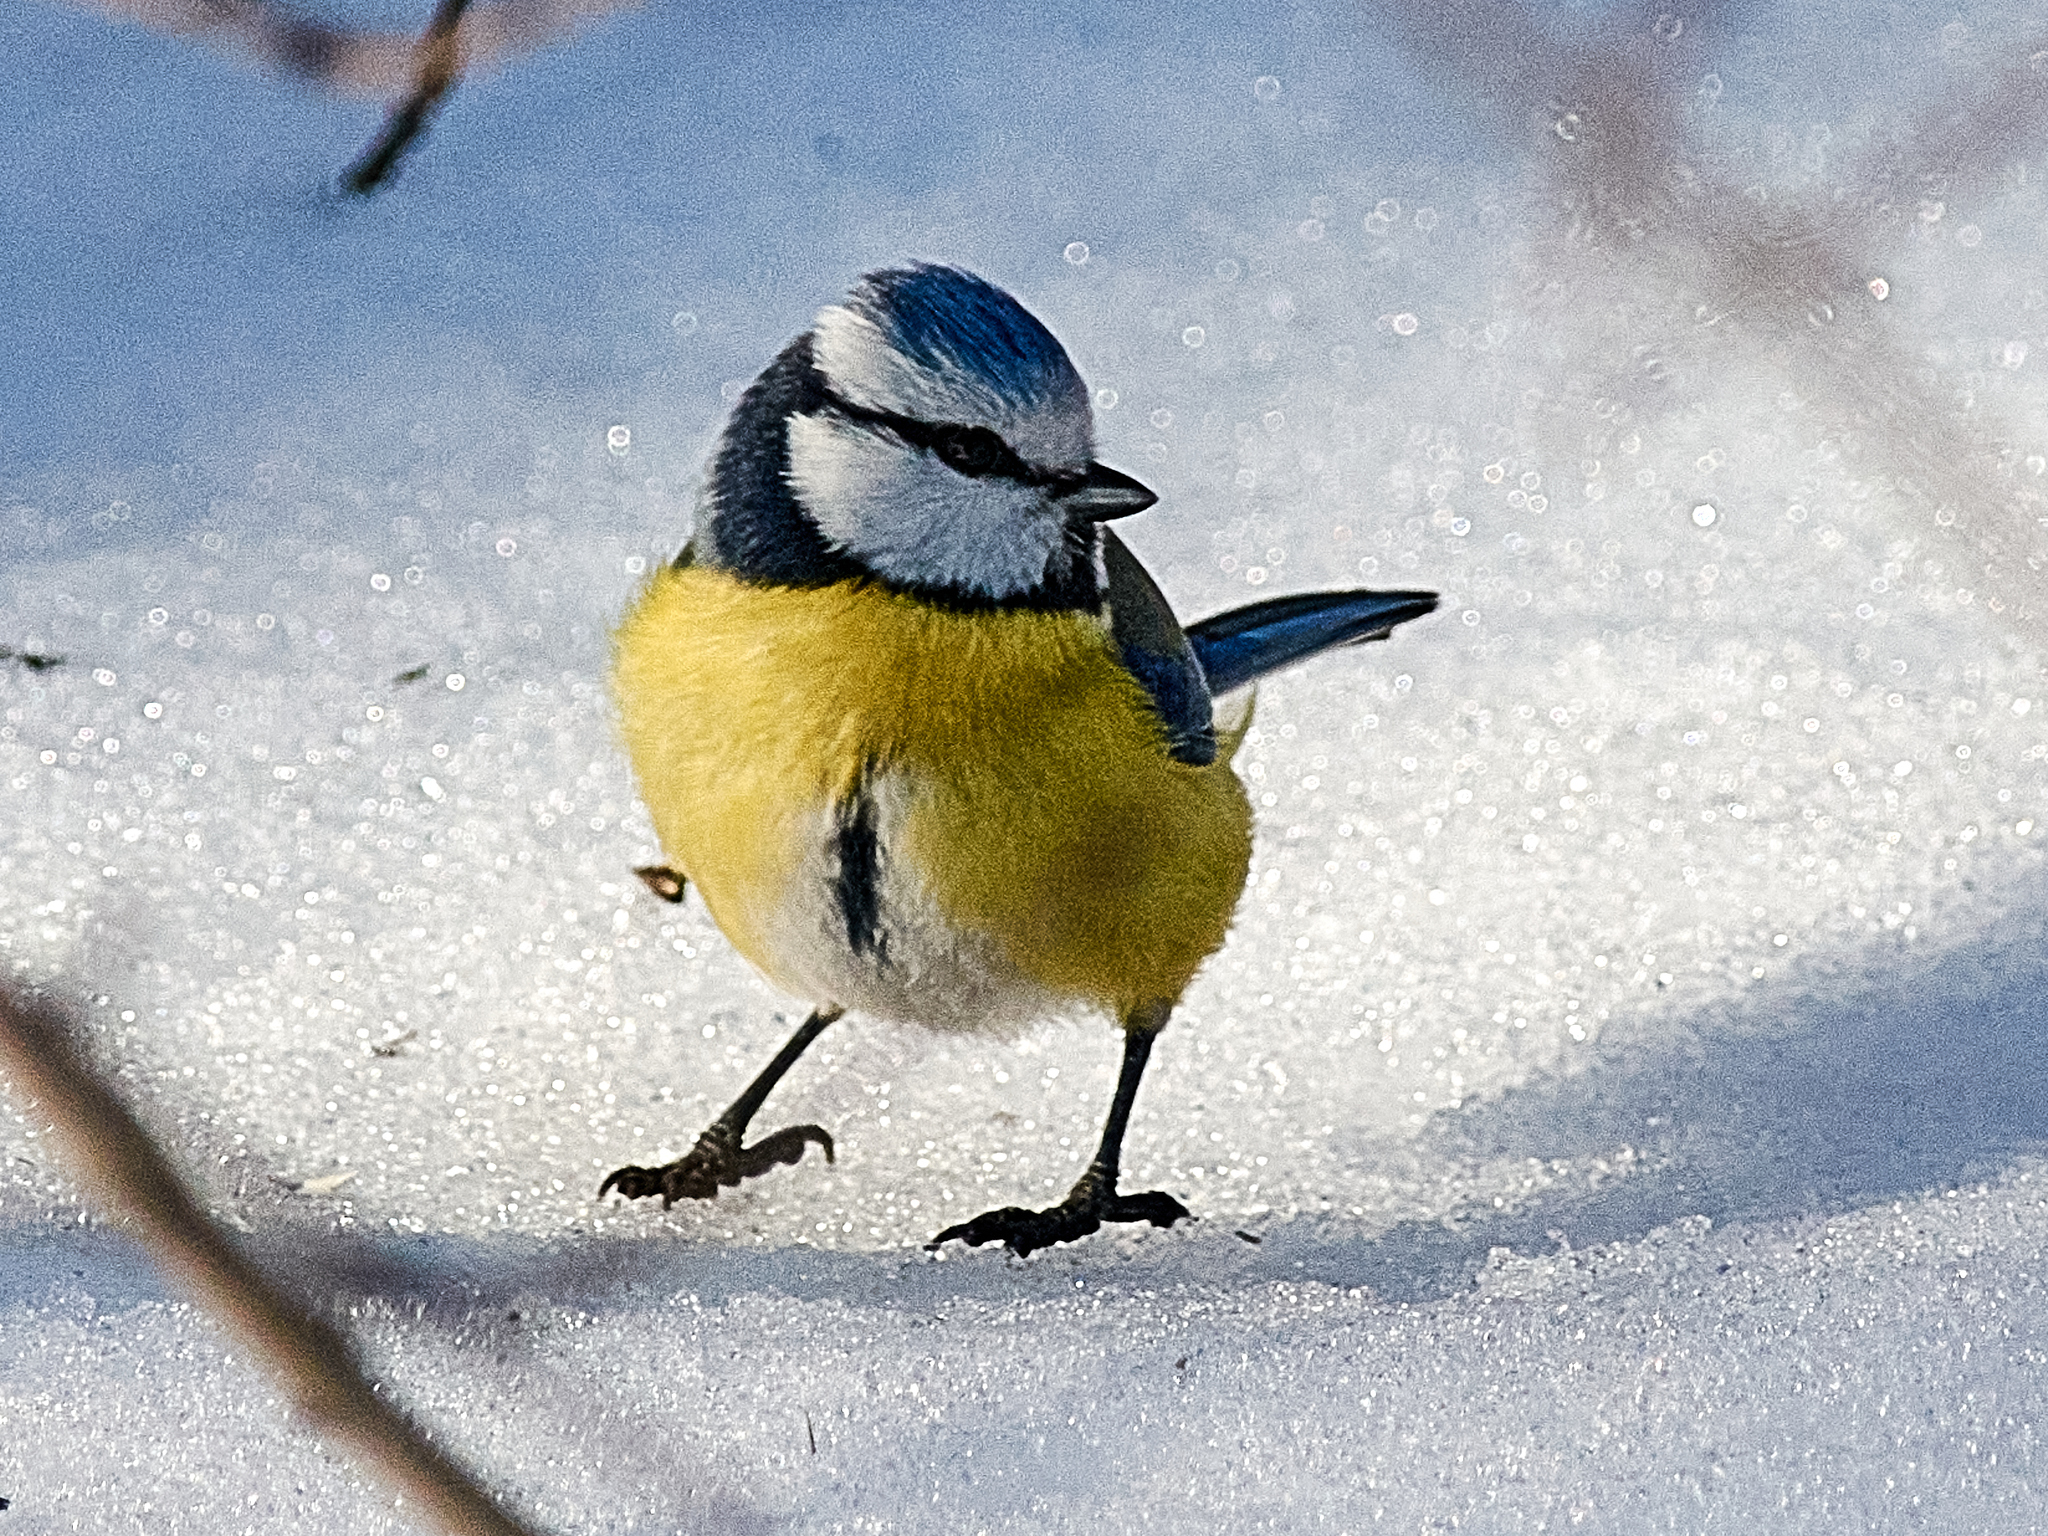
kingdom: Animalia
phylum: Chordata
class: Aves
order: Passeriformes
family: Paridae
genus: Cyanistes
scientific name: Cyanistes caeruleus
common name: Eurasian blue tit
